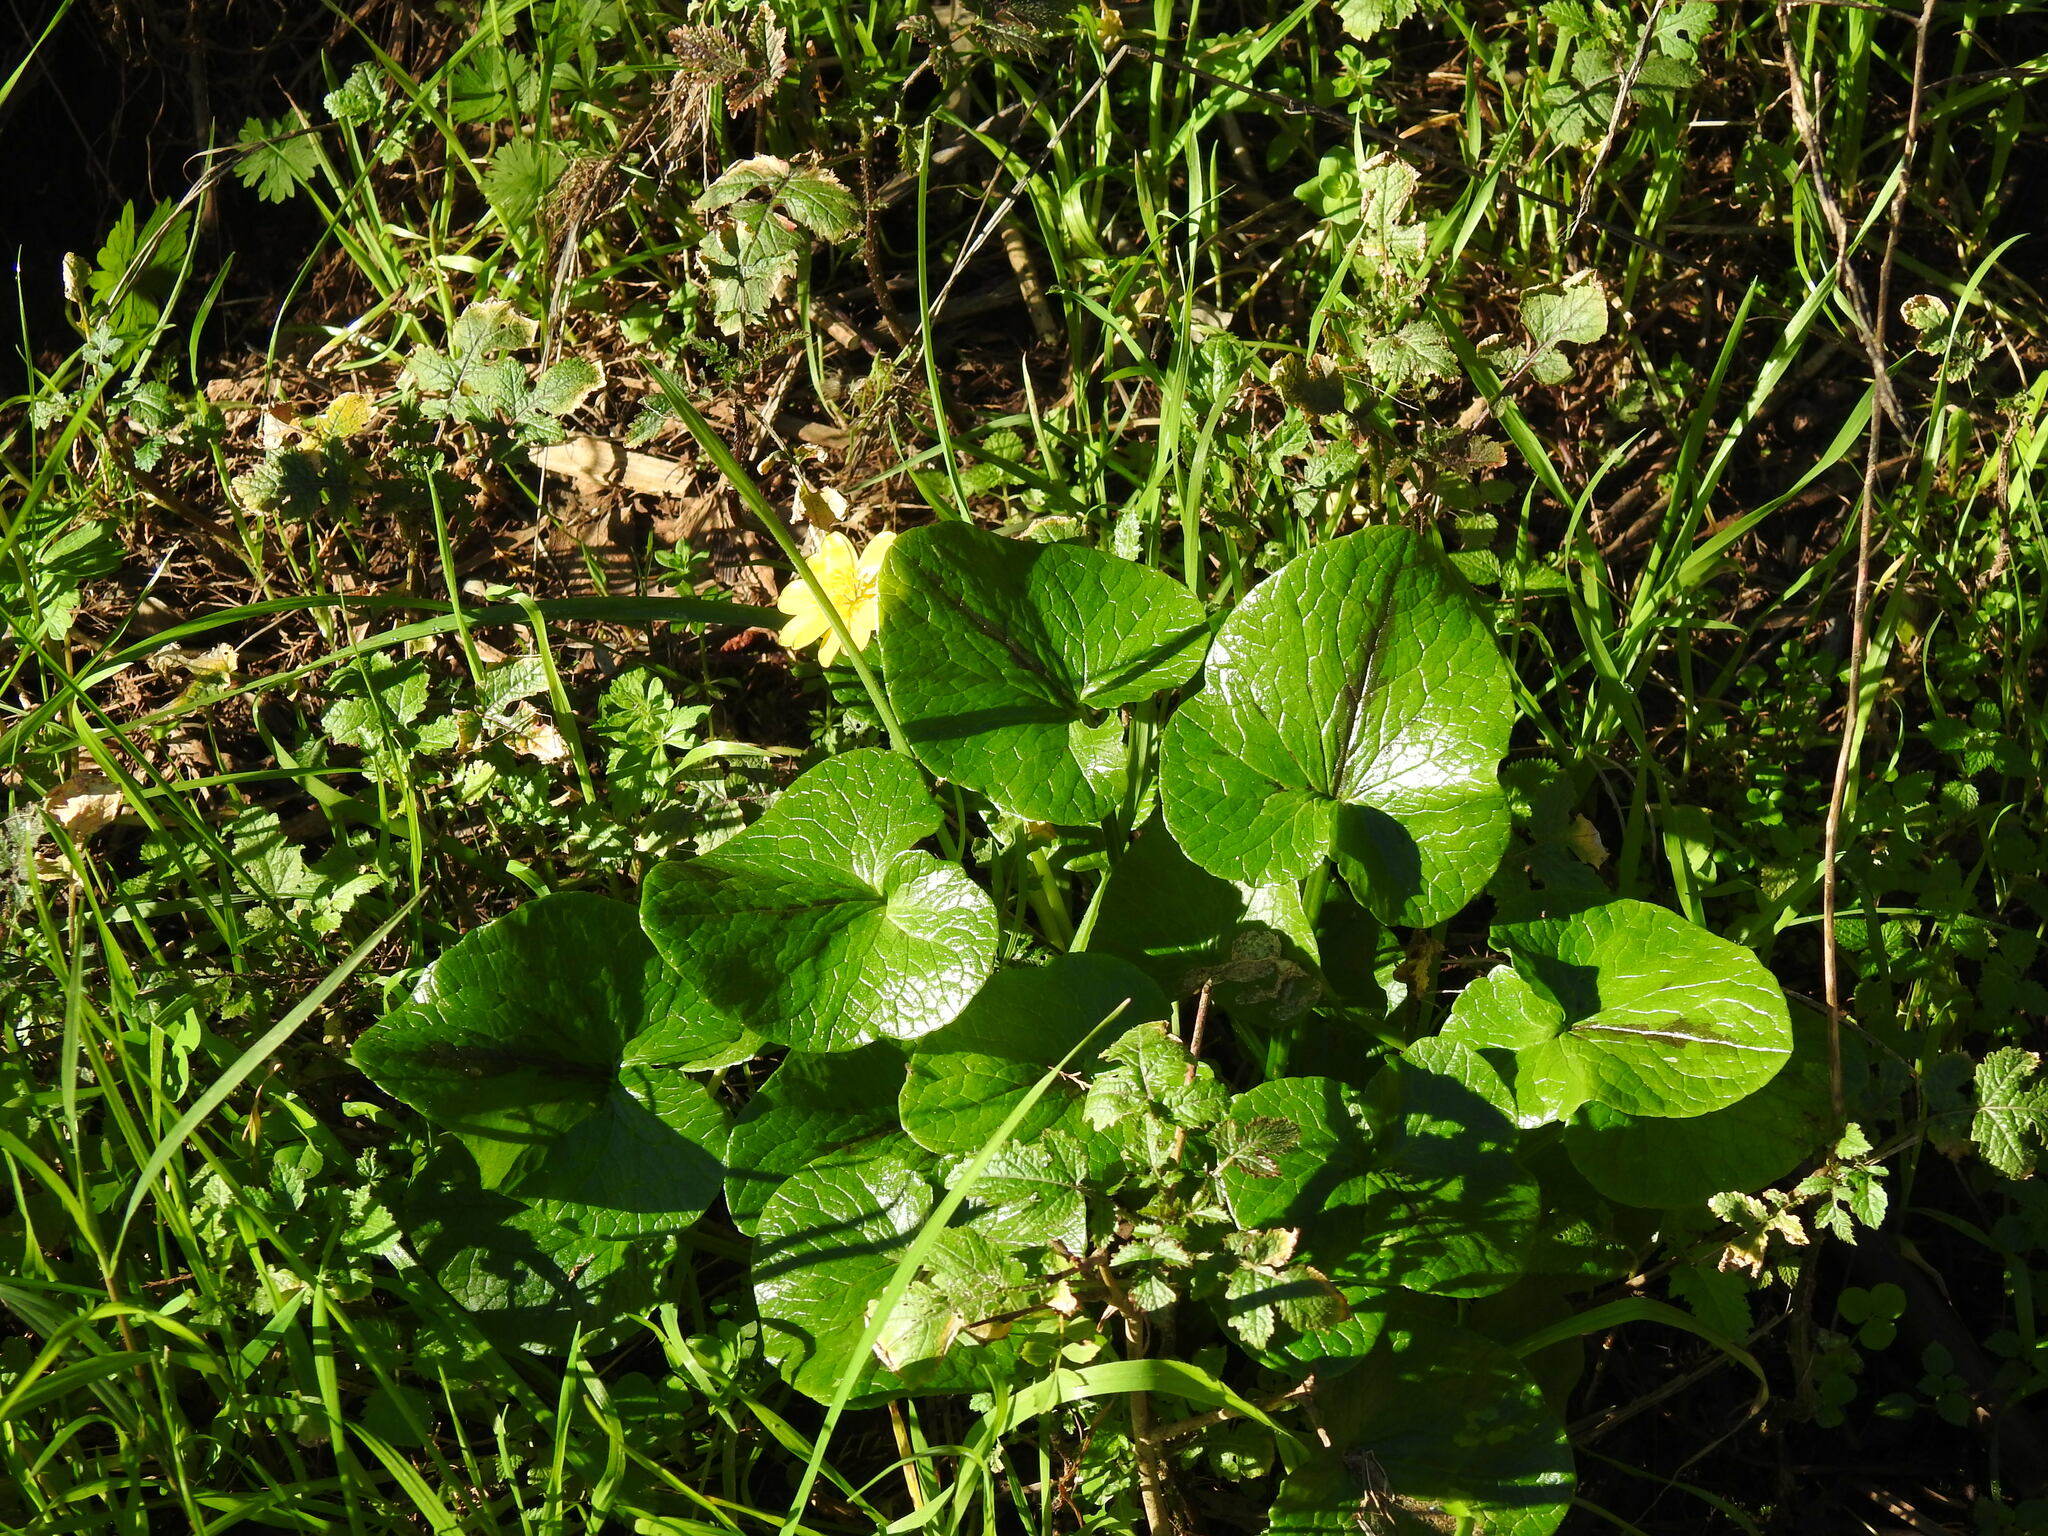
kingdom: Plantae
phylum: Tracheophyta
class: Magnoliopsida
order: Ranunculales
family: Ranunculaceae
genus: Ficaria
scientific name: Ficaria verna
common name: Lesser celandine
